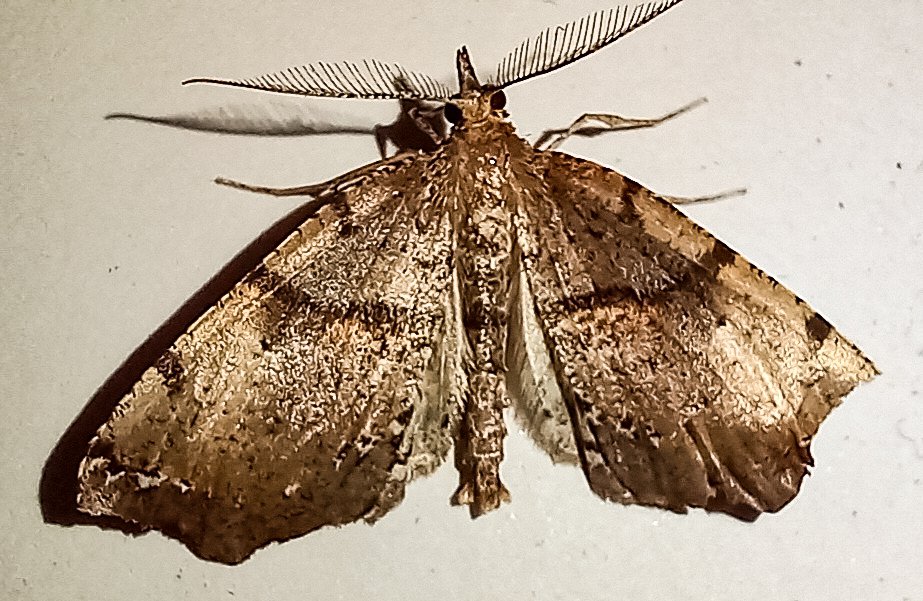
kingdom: Animalia
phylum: Arthropoda
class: Insecta
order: Lepidoptera
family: Geometridae
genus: Chalastra
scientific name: Chalastra pellurgata
